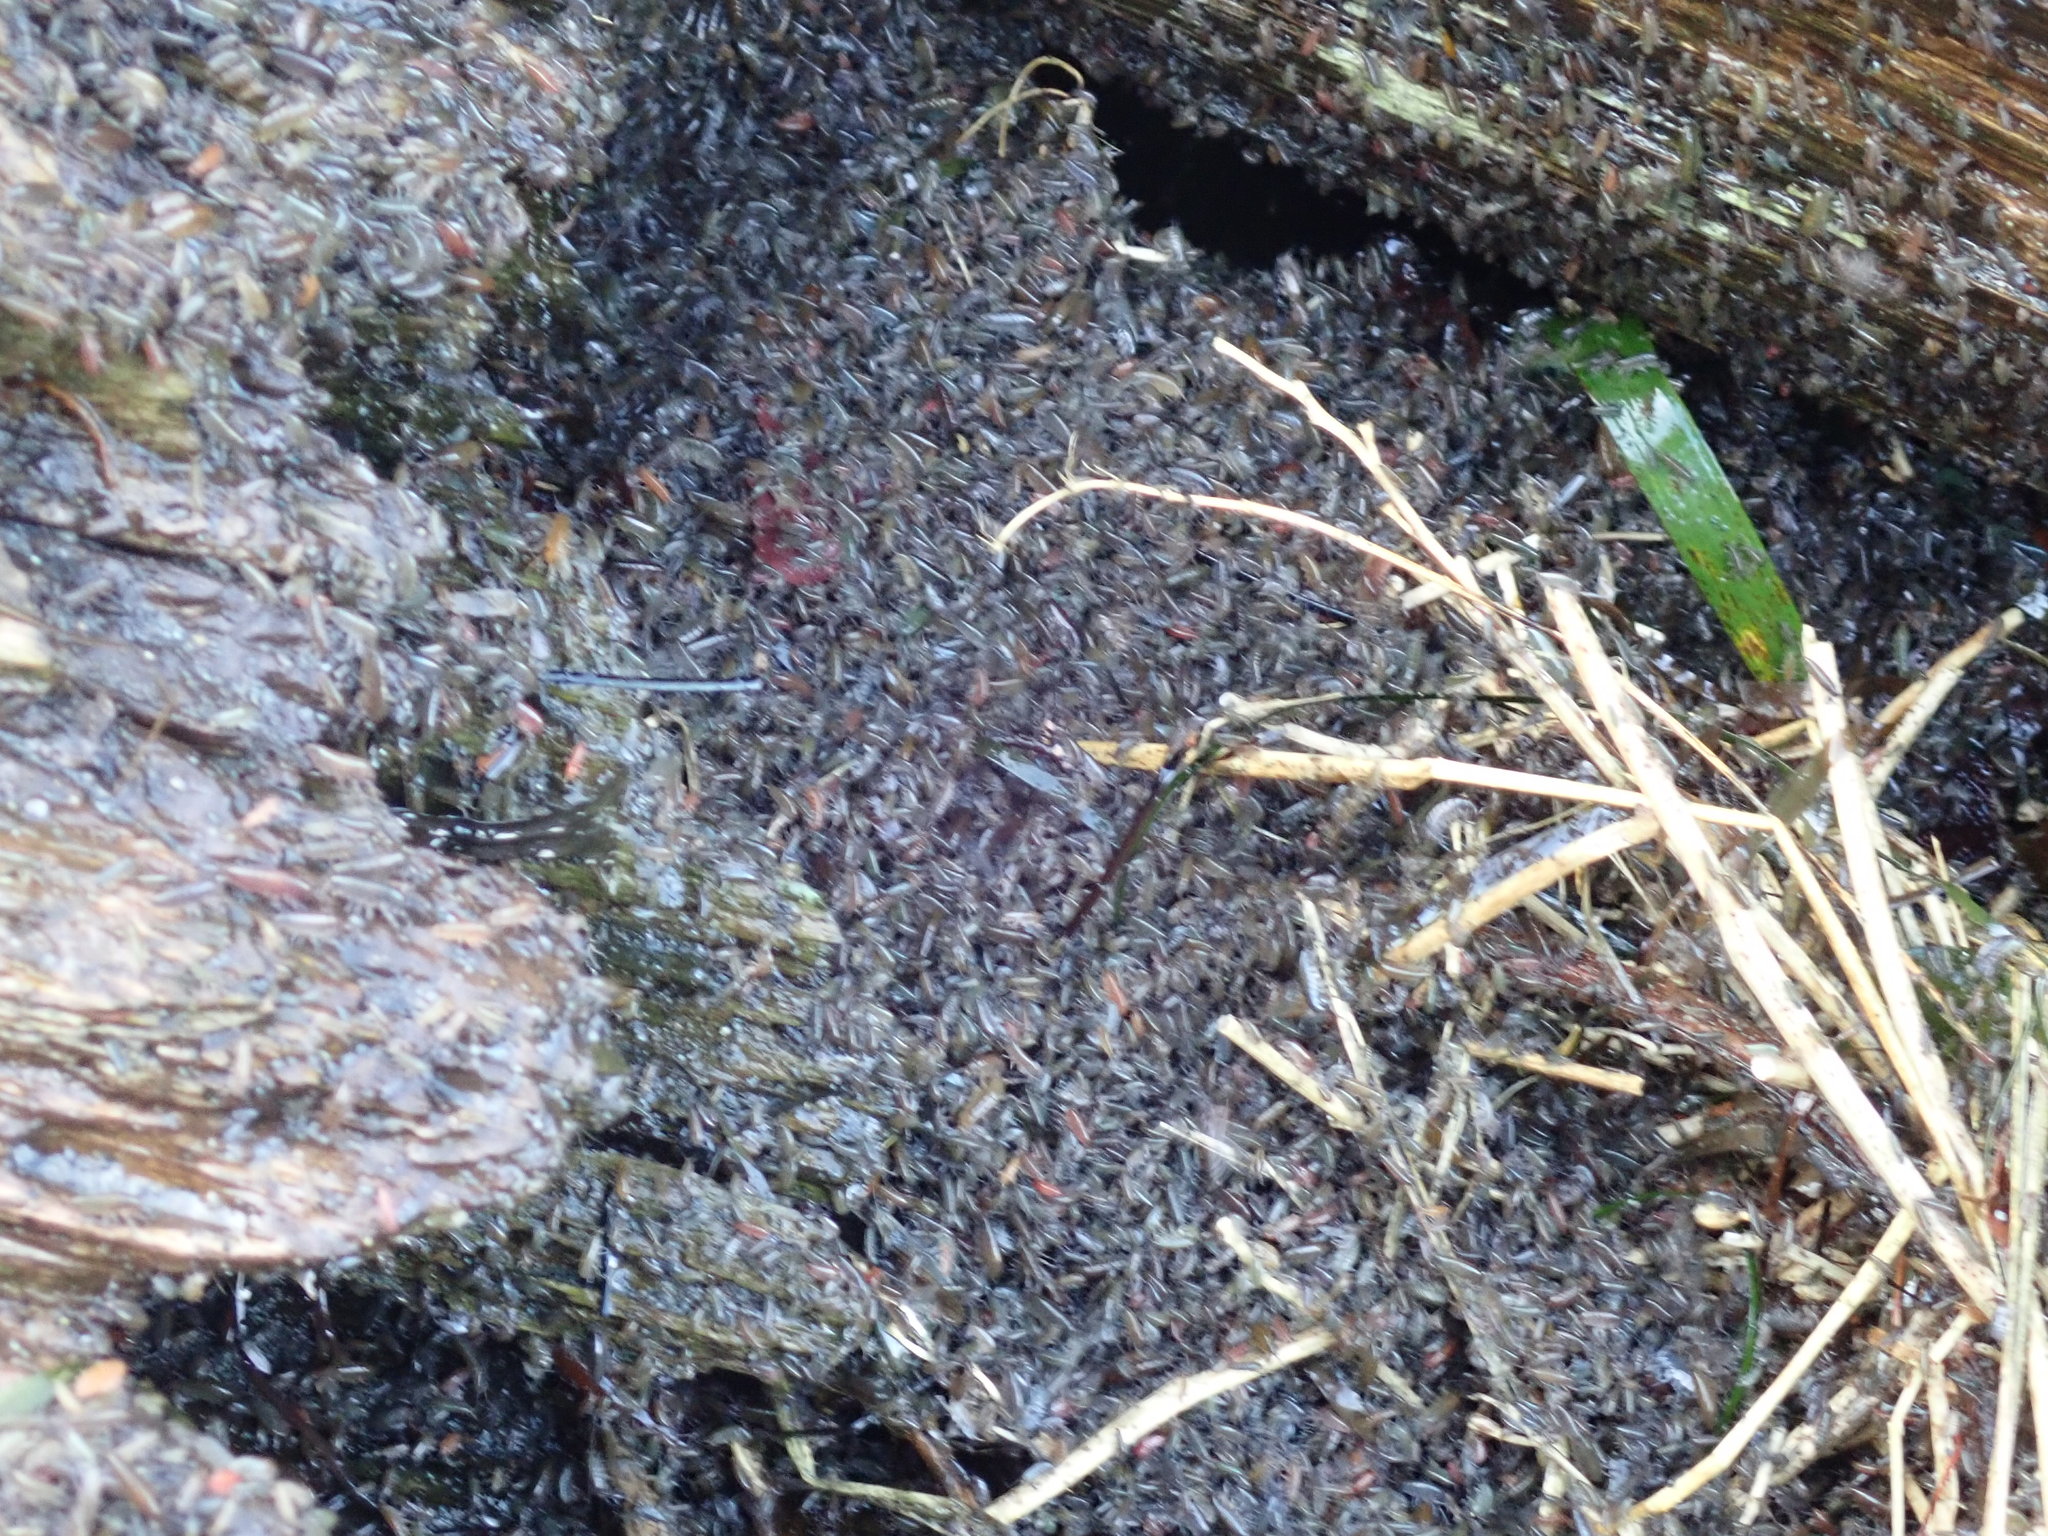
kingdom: Animalia
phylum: Arthropoda
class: Malacostraca
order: Amphipoda
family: Talitridae
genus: Traskorchestia
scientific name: Traskorchestia traskiana
